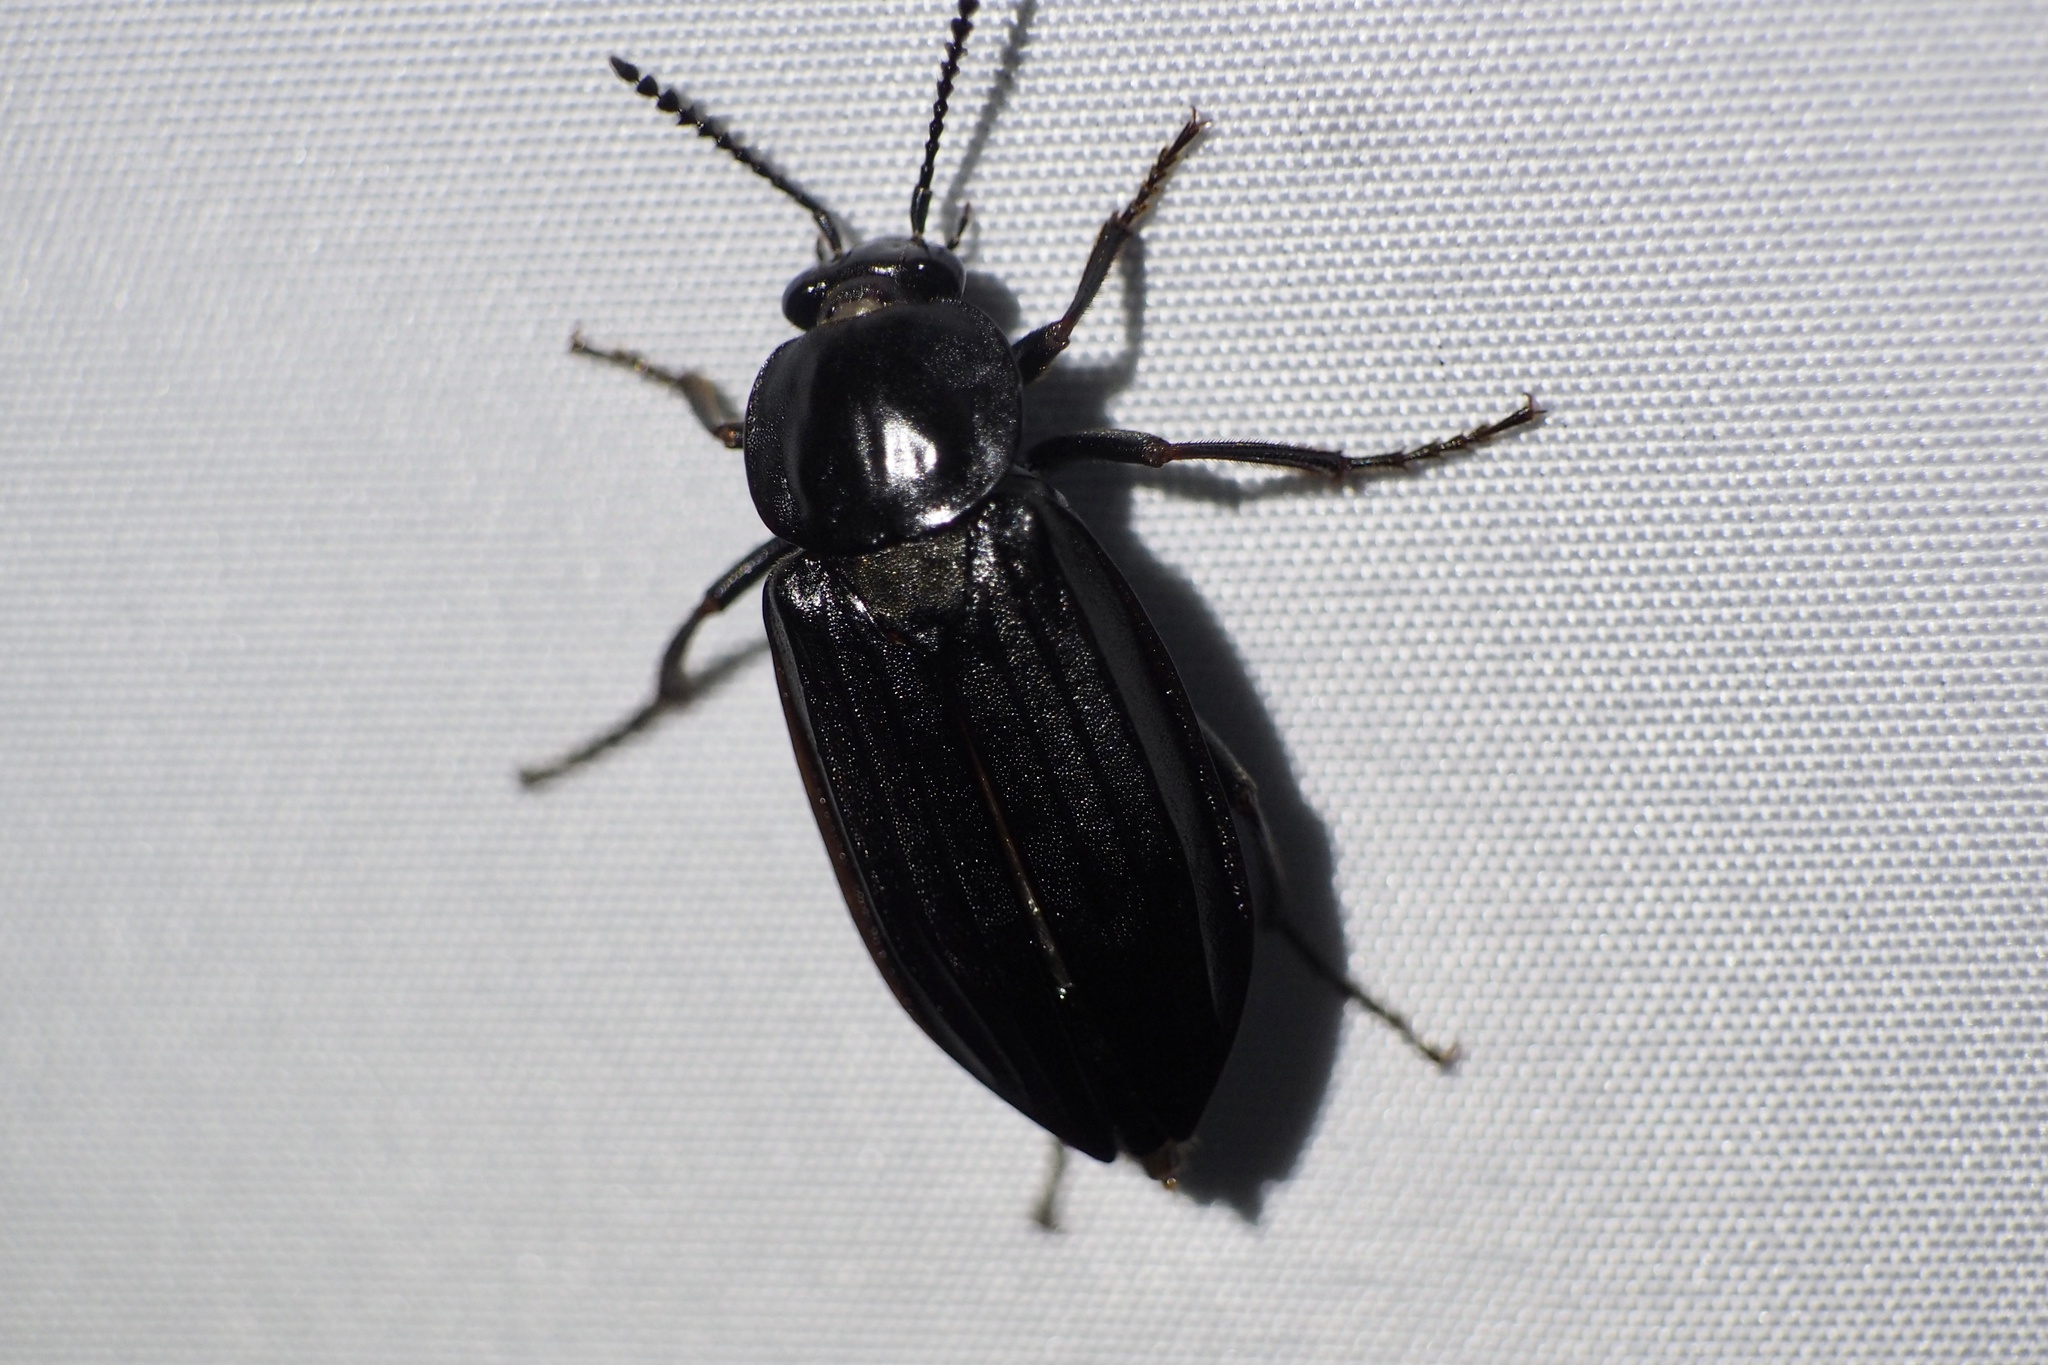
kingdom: Animalia
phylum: Arthropoda
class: Insecta
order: Coleoptera
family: Staphylinidae
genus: Necrodes
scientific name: Necrodes nigricornis
